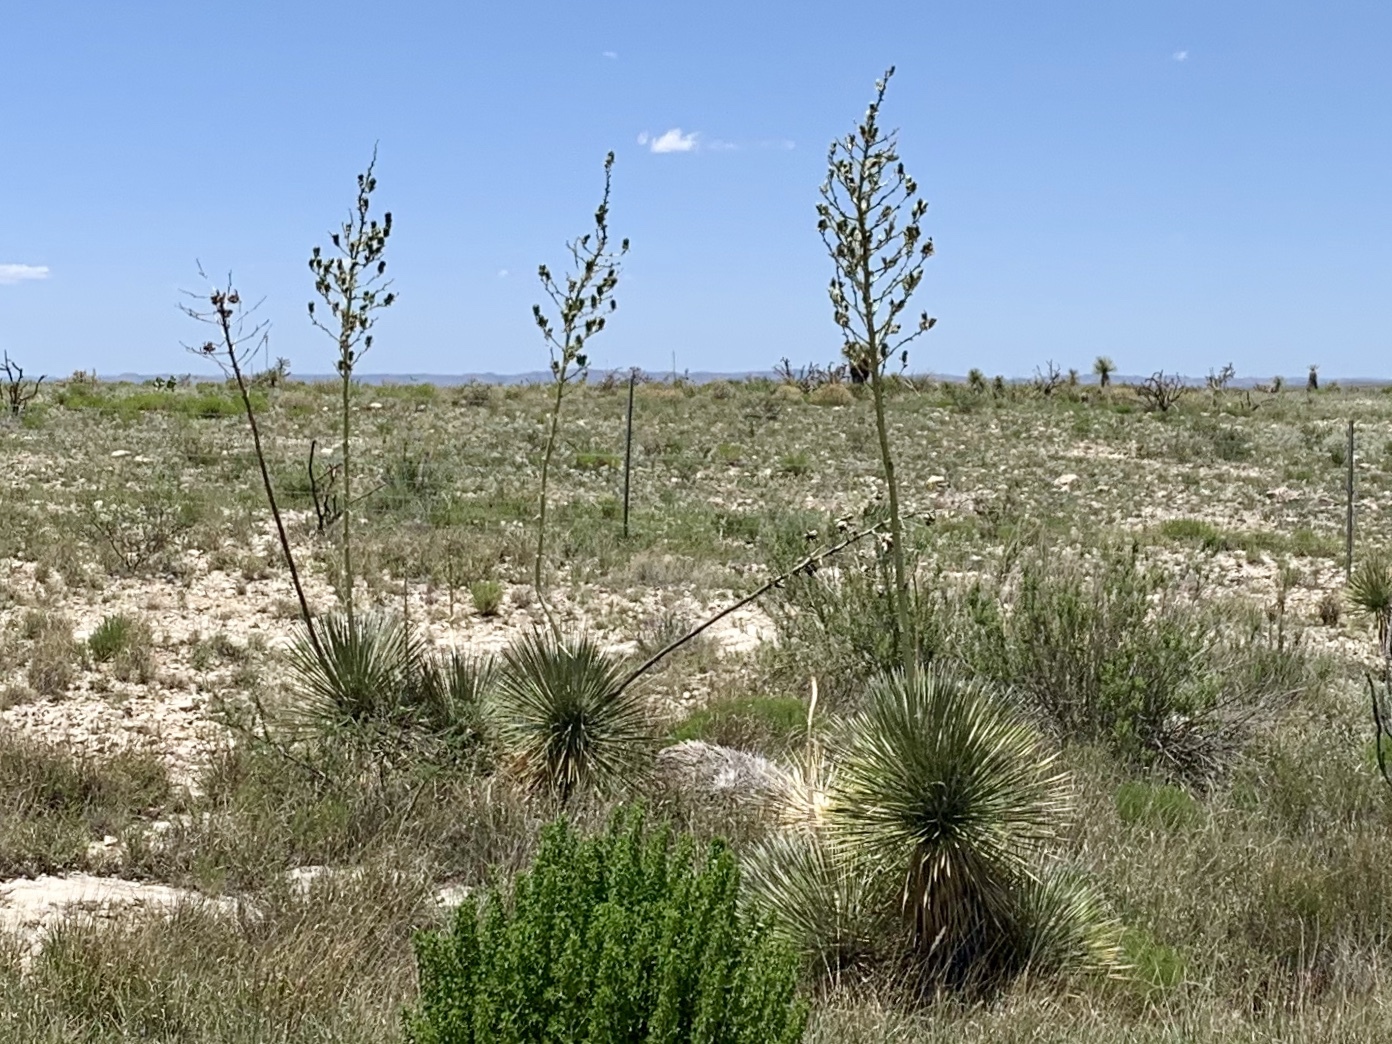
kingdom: Plantae
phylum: Tracheophyta
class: Liliopsida
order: Asparagales
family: Asparagaceae
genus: Yucca
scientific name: Yucca elata
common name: Palmella
